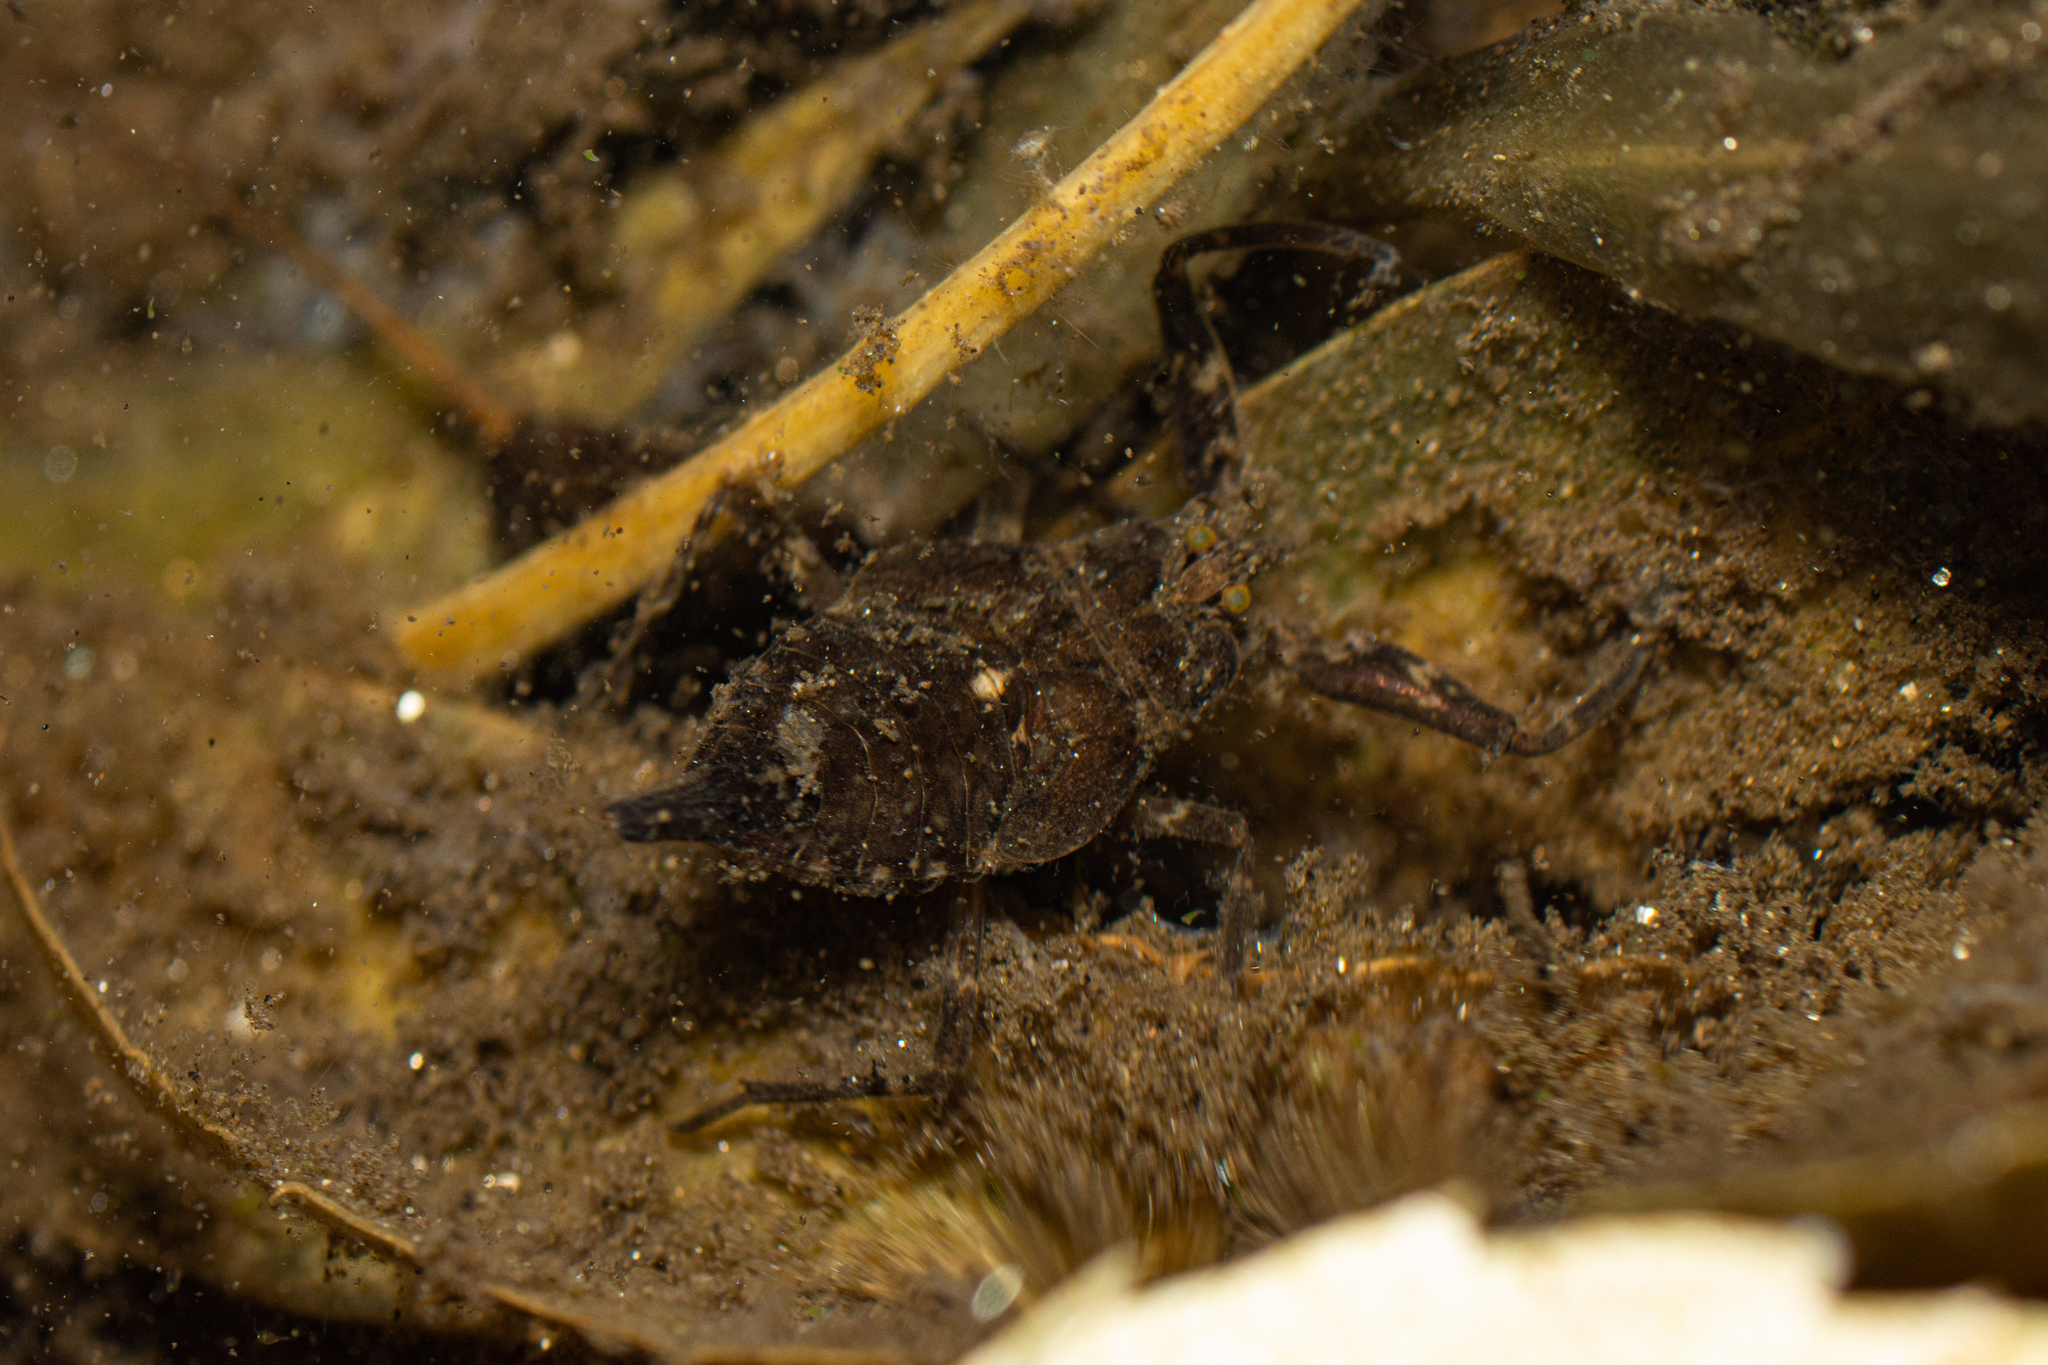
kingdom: Animalia
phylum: Arthropoda
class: Insecta
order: Hemiptera
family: Nepidae
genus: Nepa
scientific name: Nepa cinerea
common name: Water scorpion
